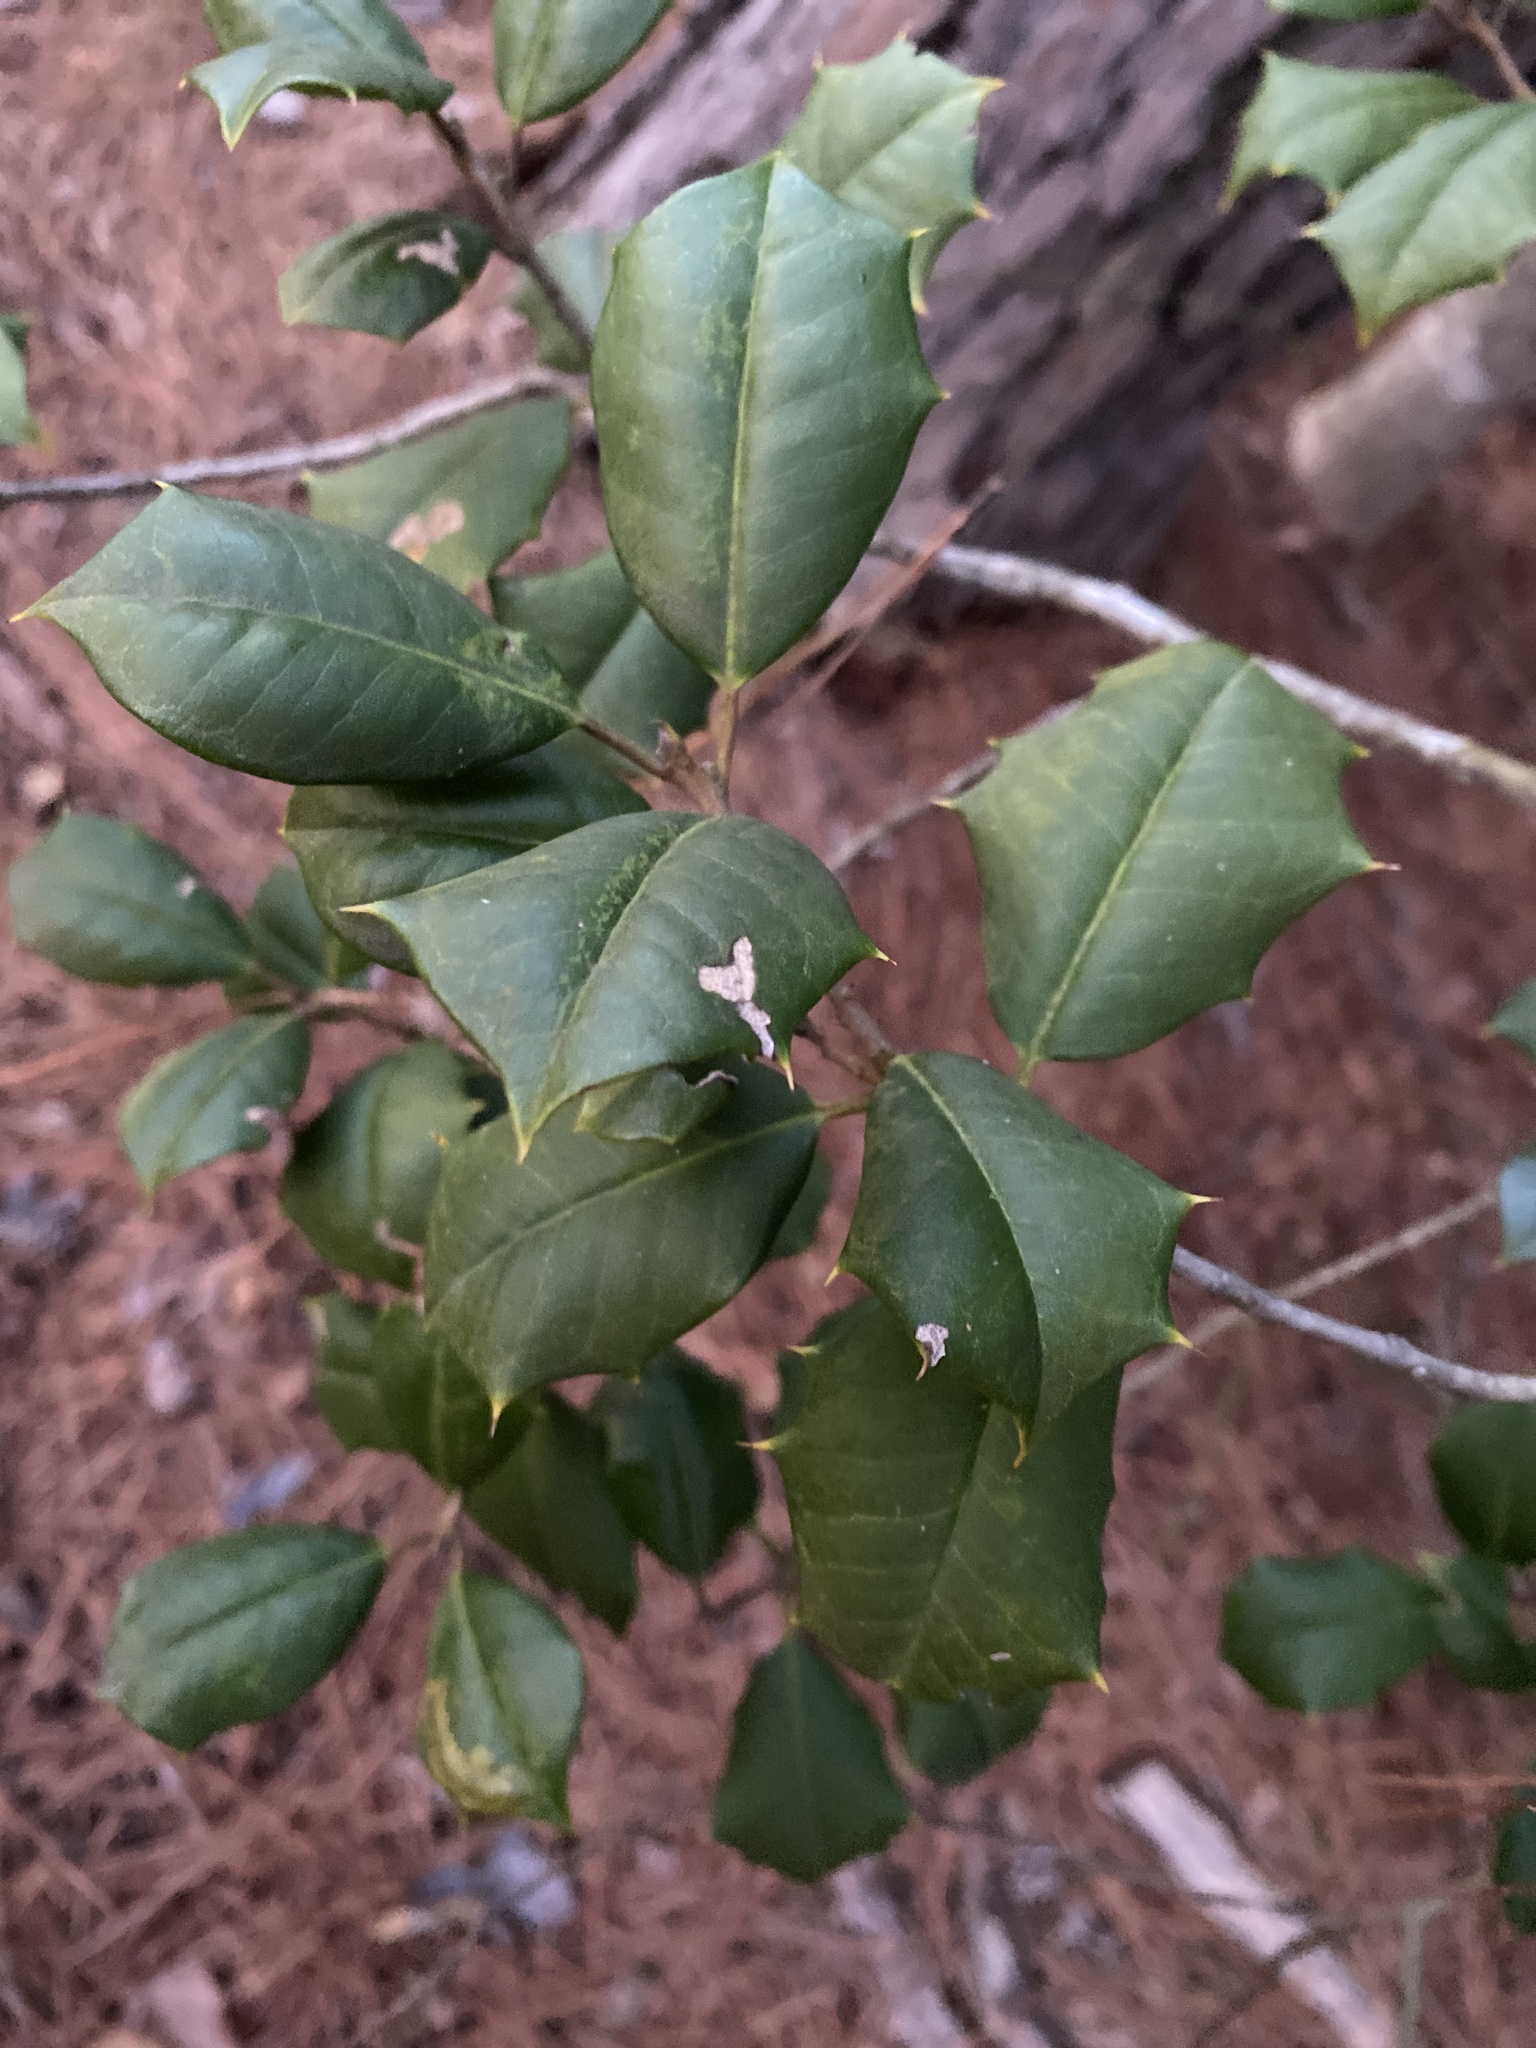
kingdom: Plantae
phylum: Tracheophyta
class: Magnoliopsida
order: Aquifoliales
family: Aquifoliaceae
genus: Ilex
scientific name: Ilex opaca
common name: American holly
